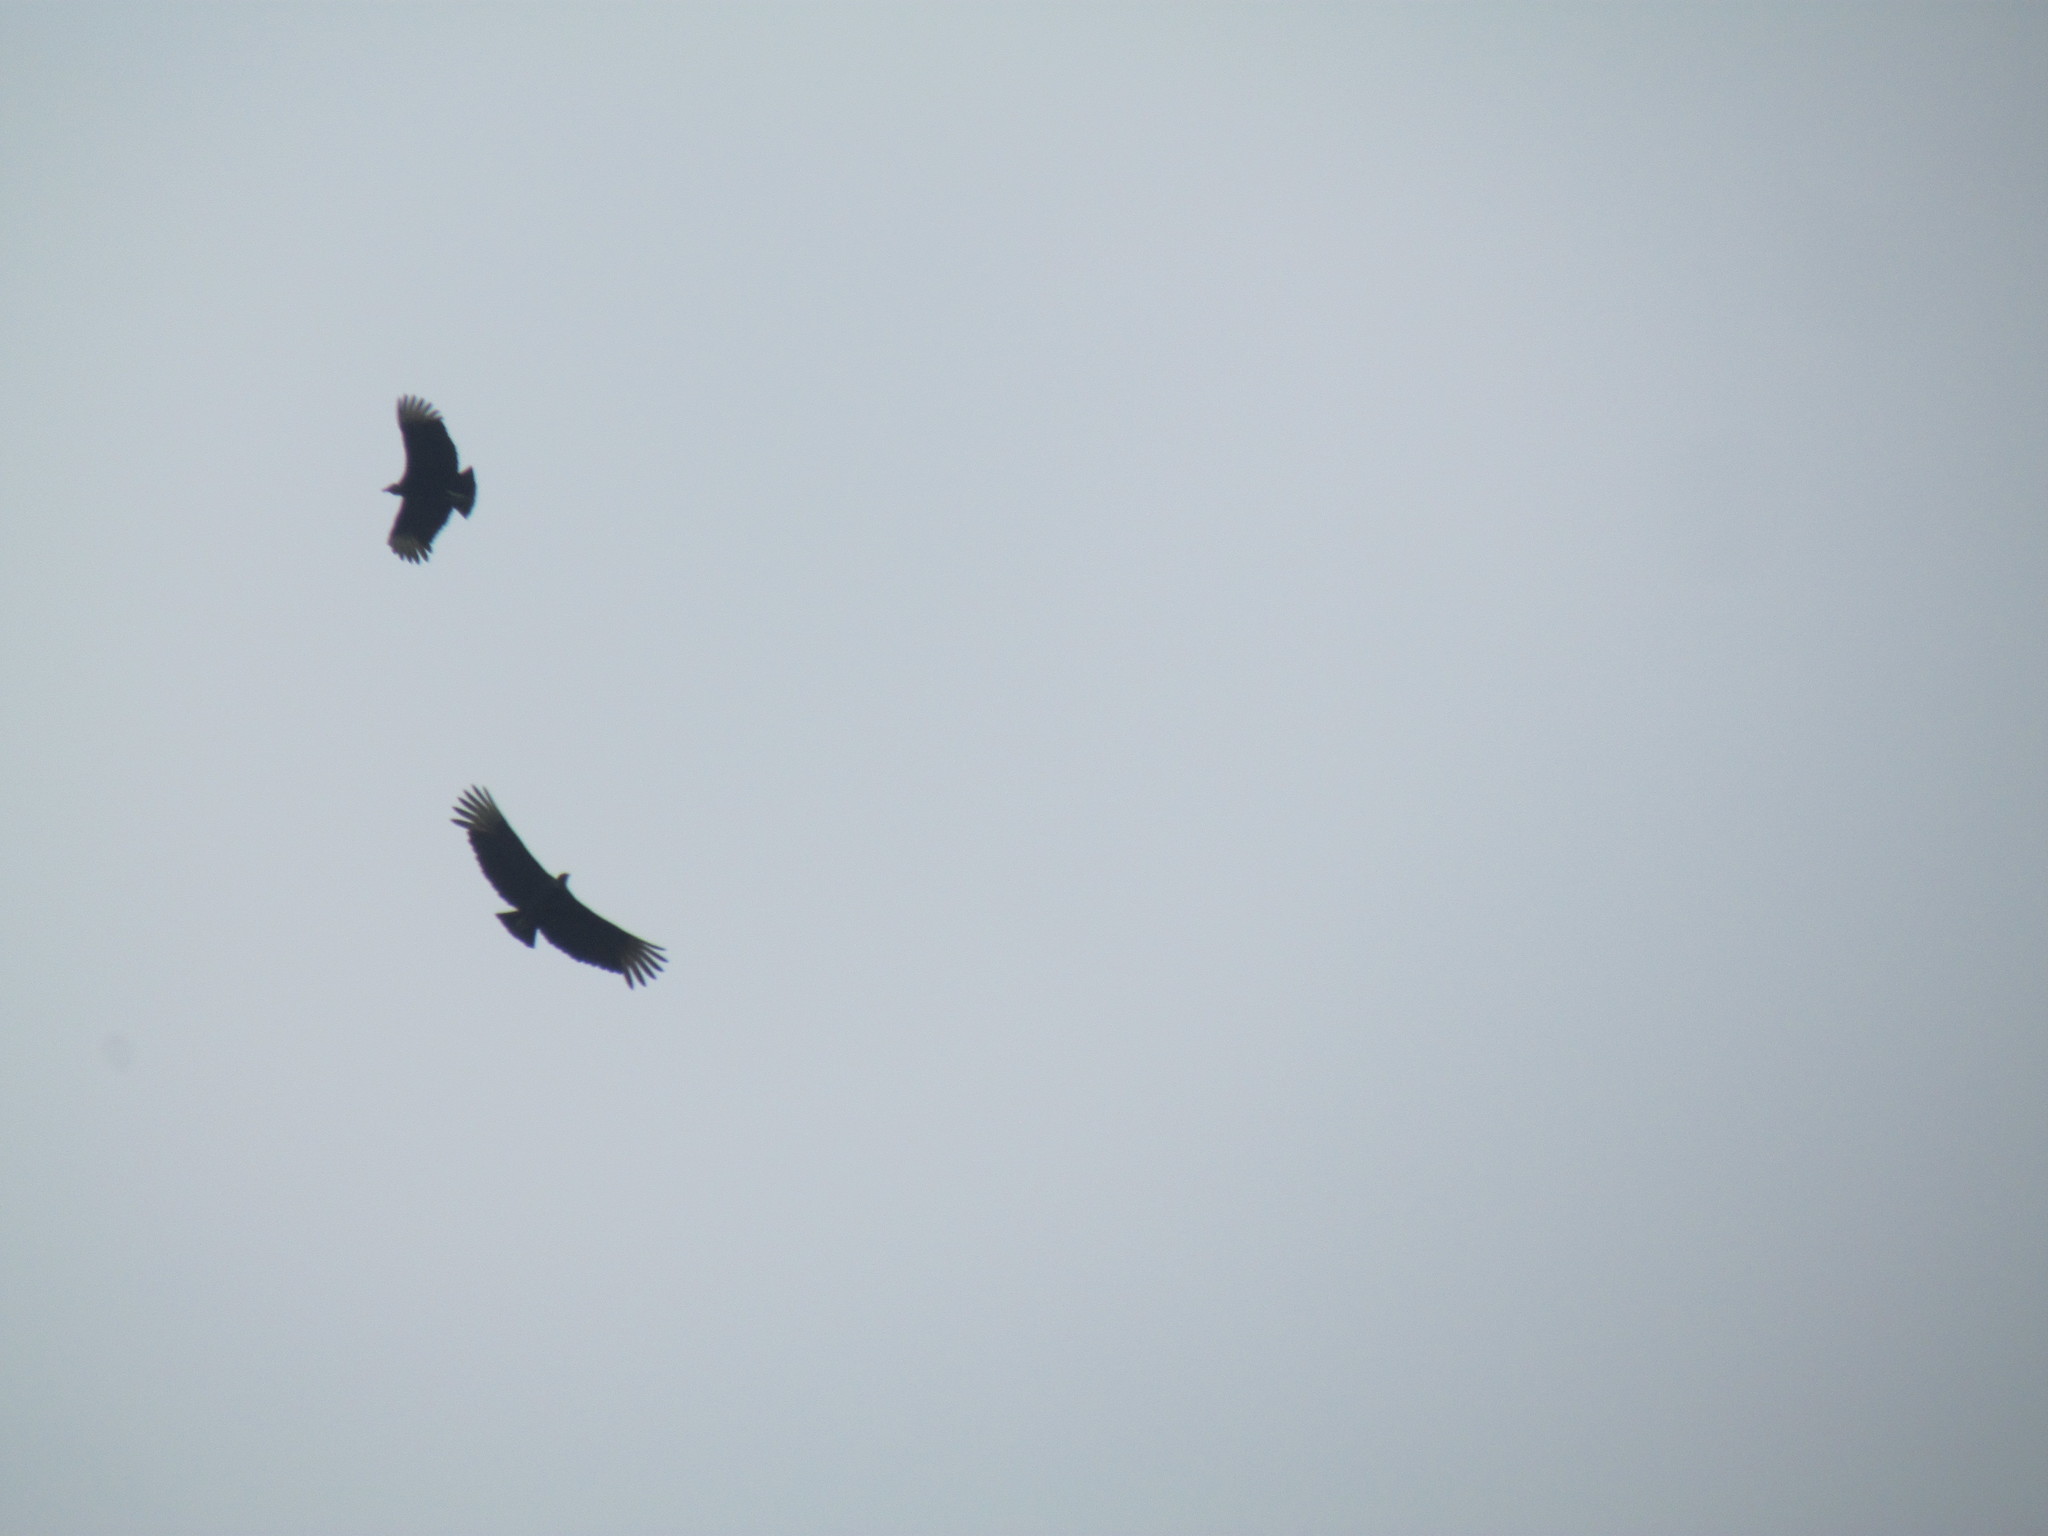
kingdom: Animalia
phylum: Chordata
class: Aves
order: Accipitriformes
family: Cathartidae
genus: Coragyps
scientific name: Coragyps atratus
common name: Black vulture
